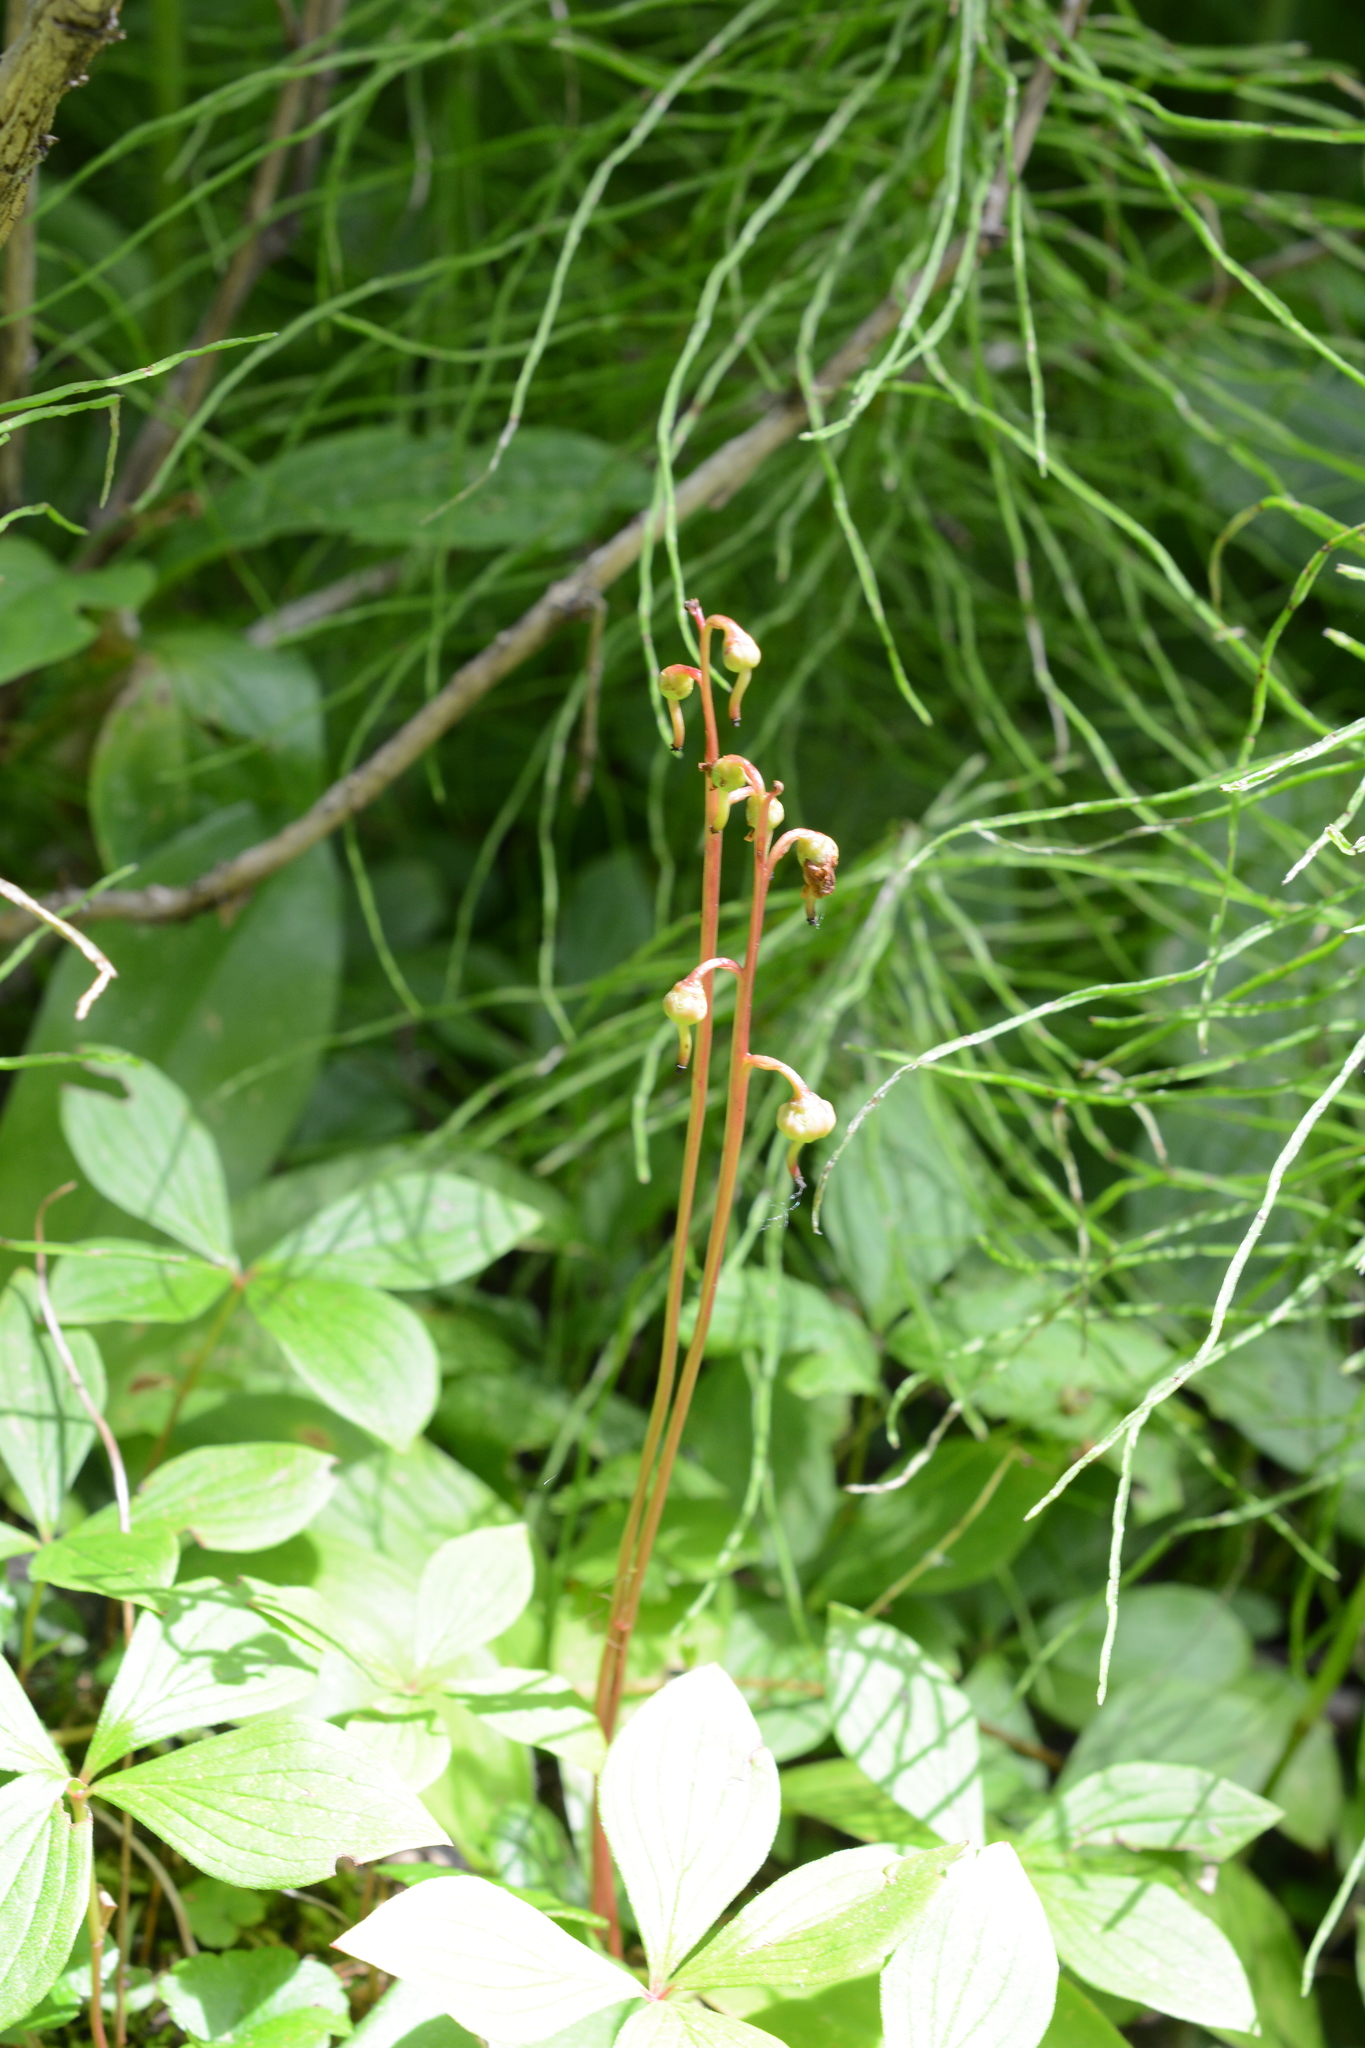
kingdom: Plantae
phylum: Tracheophyta
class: Magnoliopsida
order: Ericales
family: Ericaceae
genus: Pyrola
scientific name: Pyrola chlorantha
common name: Green wintergreen
